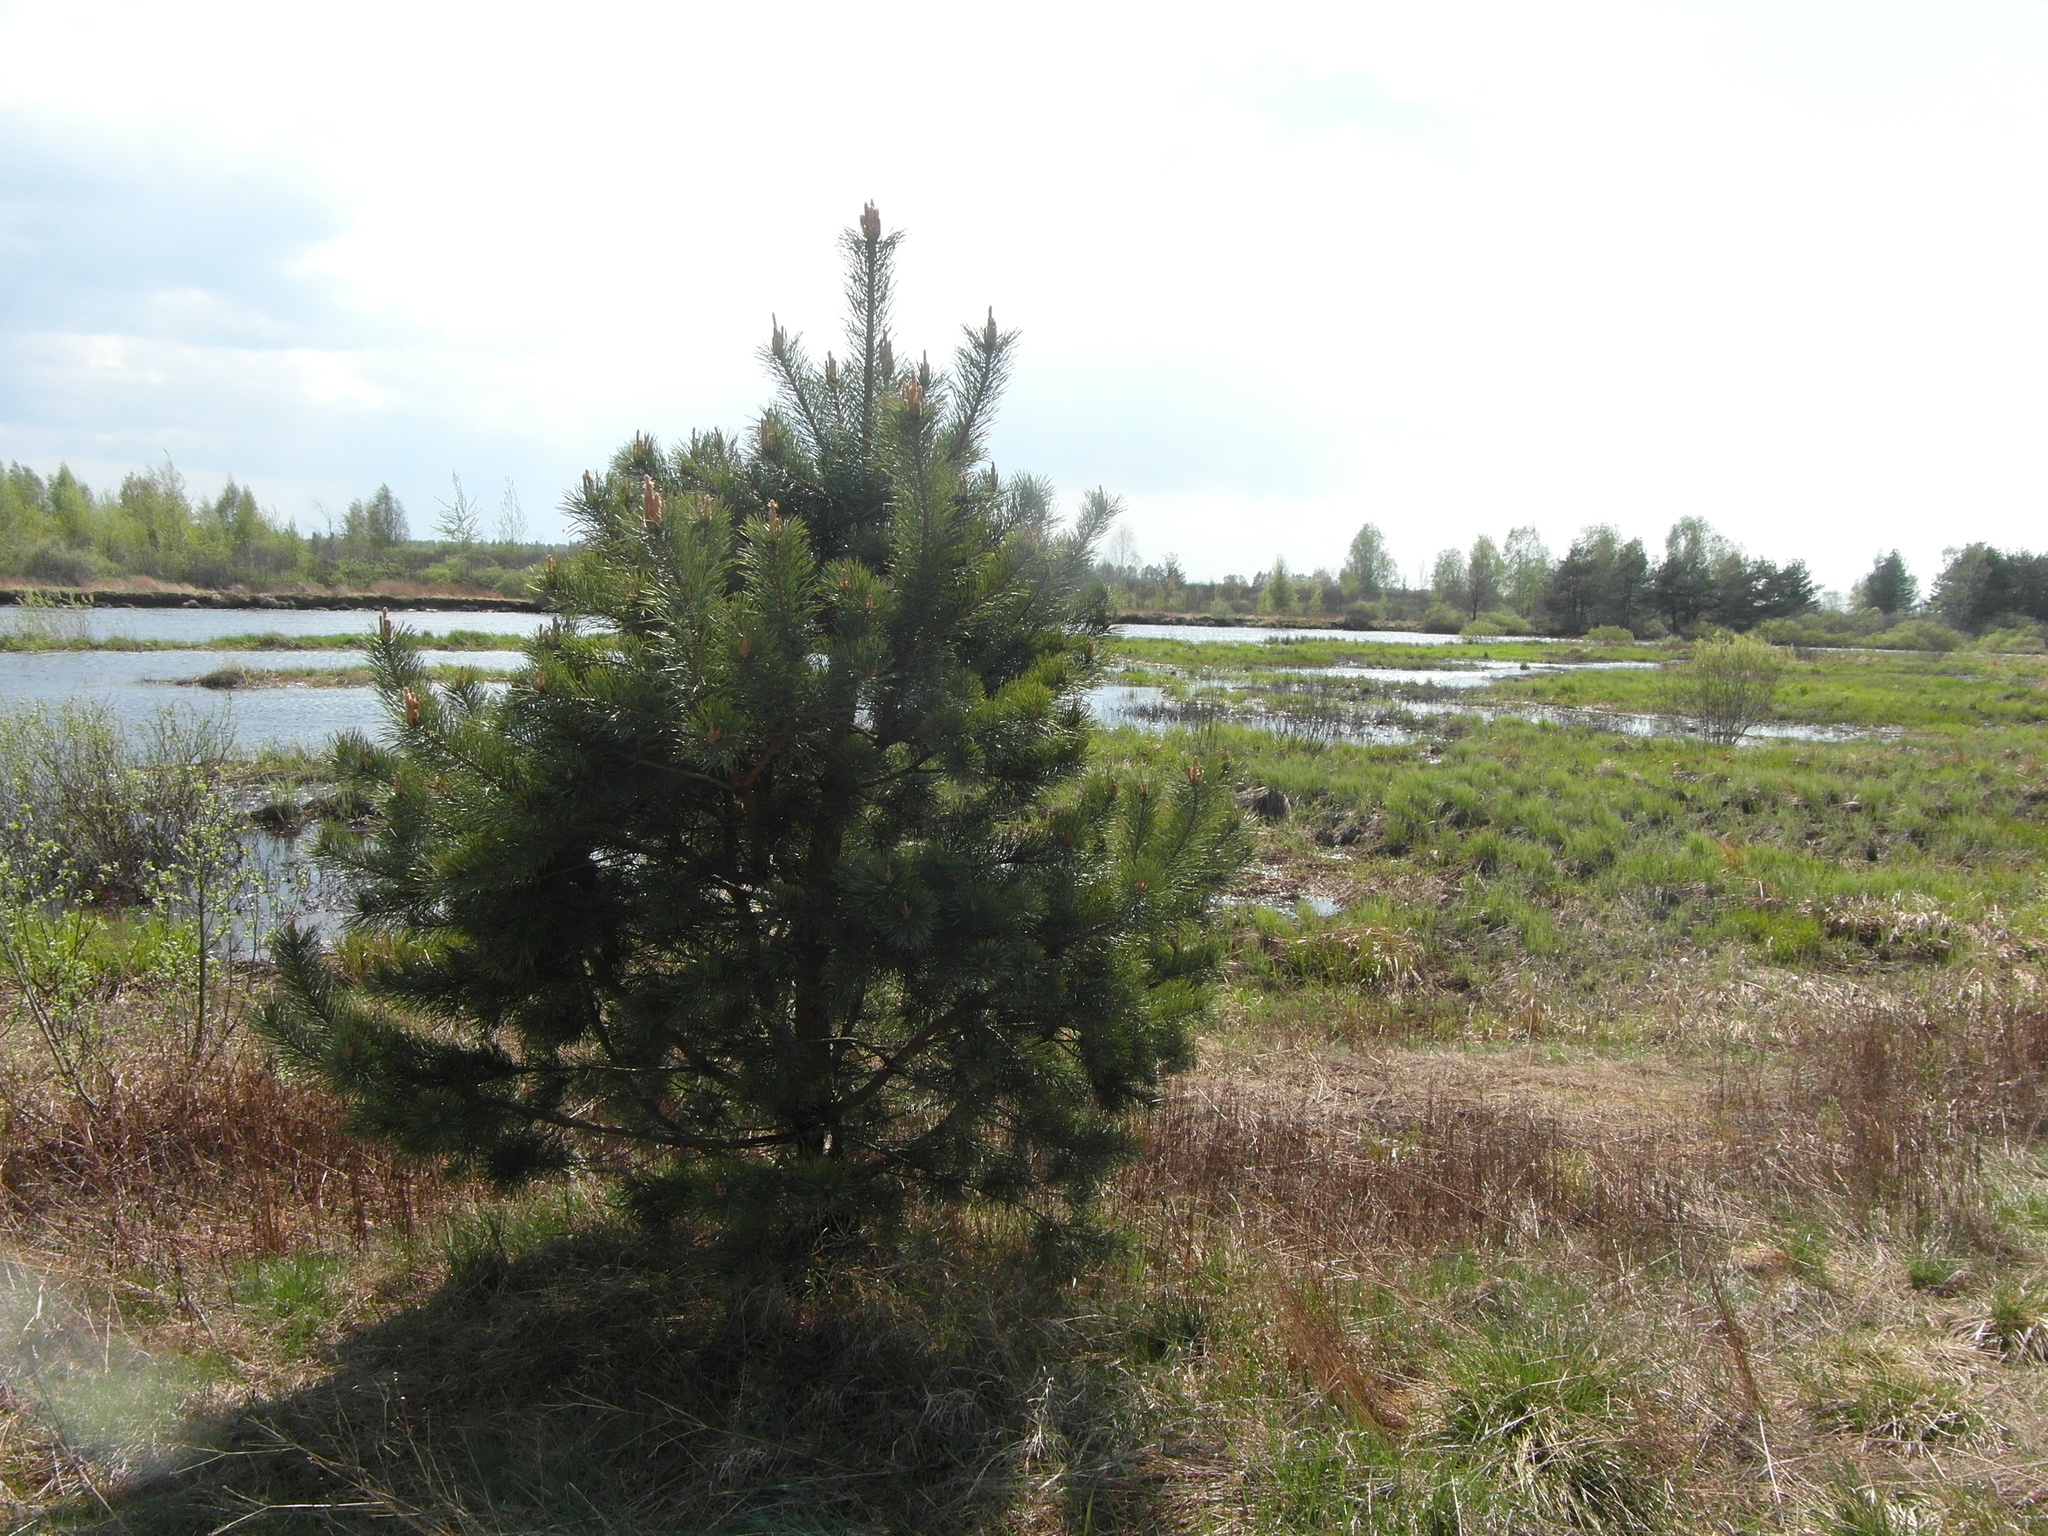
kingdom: Plantae
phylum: Tracheophyta
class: Pinopsida
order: Pinales
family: Pinaceae
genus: Pinus
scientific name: Pinus sylvestris
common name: Scots pine
